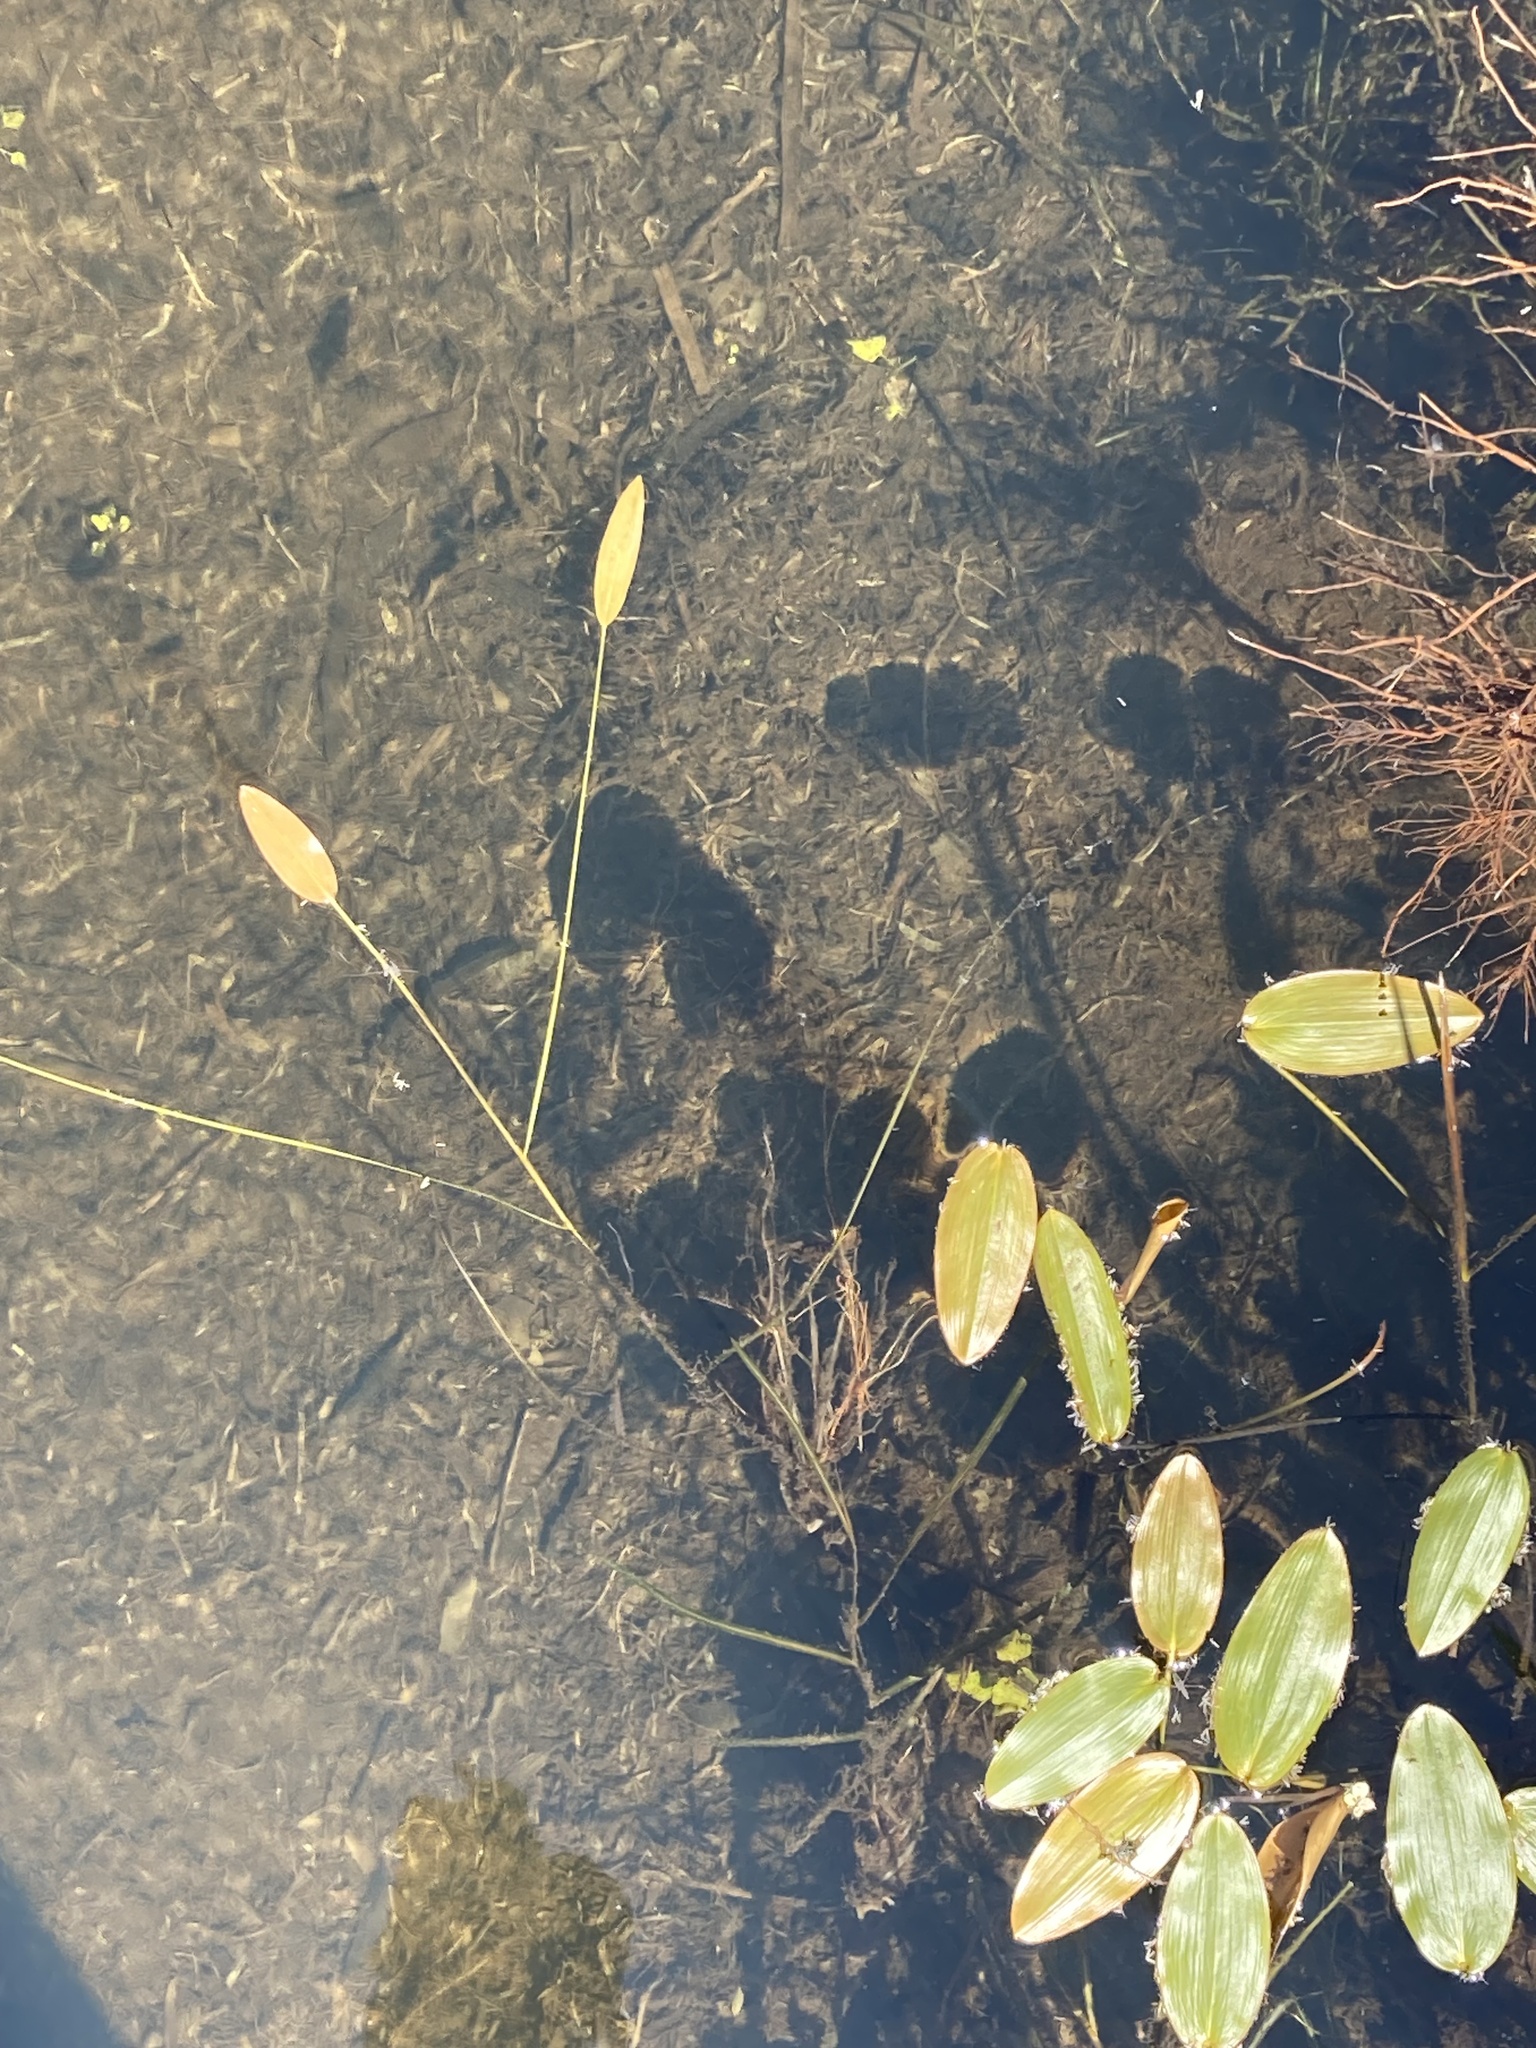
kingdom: Plantae
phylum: Tracheophyta
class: Liliopsida
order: Alismatales
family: Potamogetonaceae
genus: Potamogeton
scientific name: Potamogeton natans
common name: Broad-leaved pondweed
